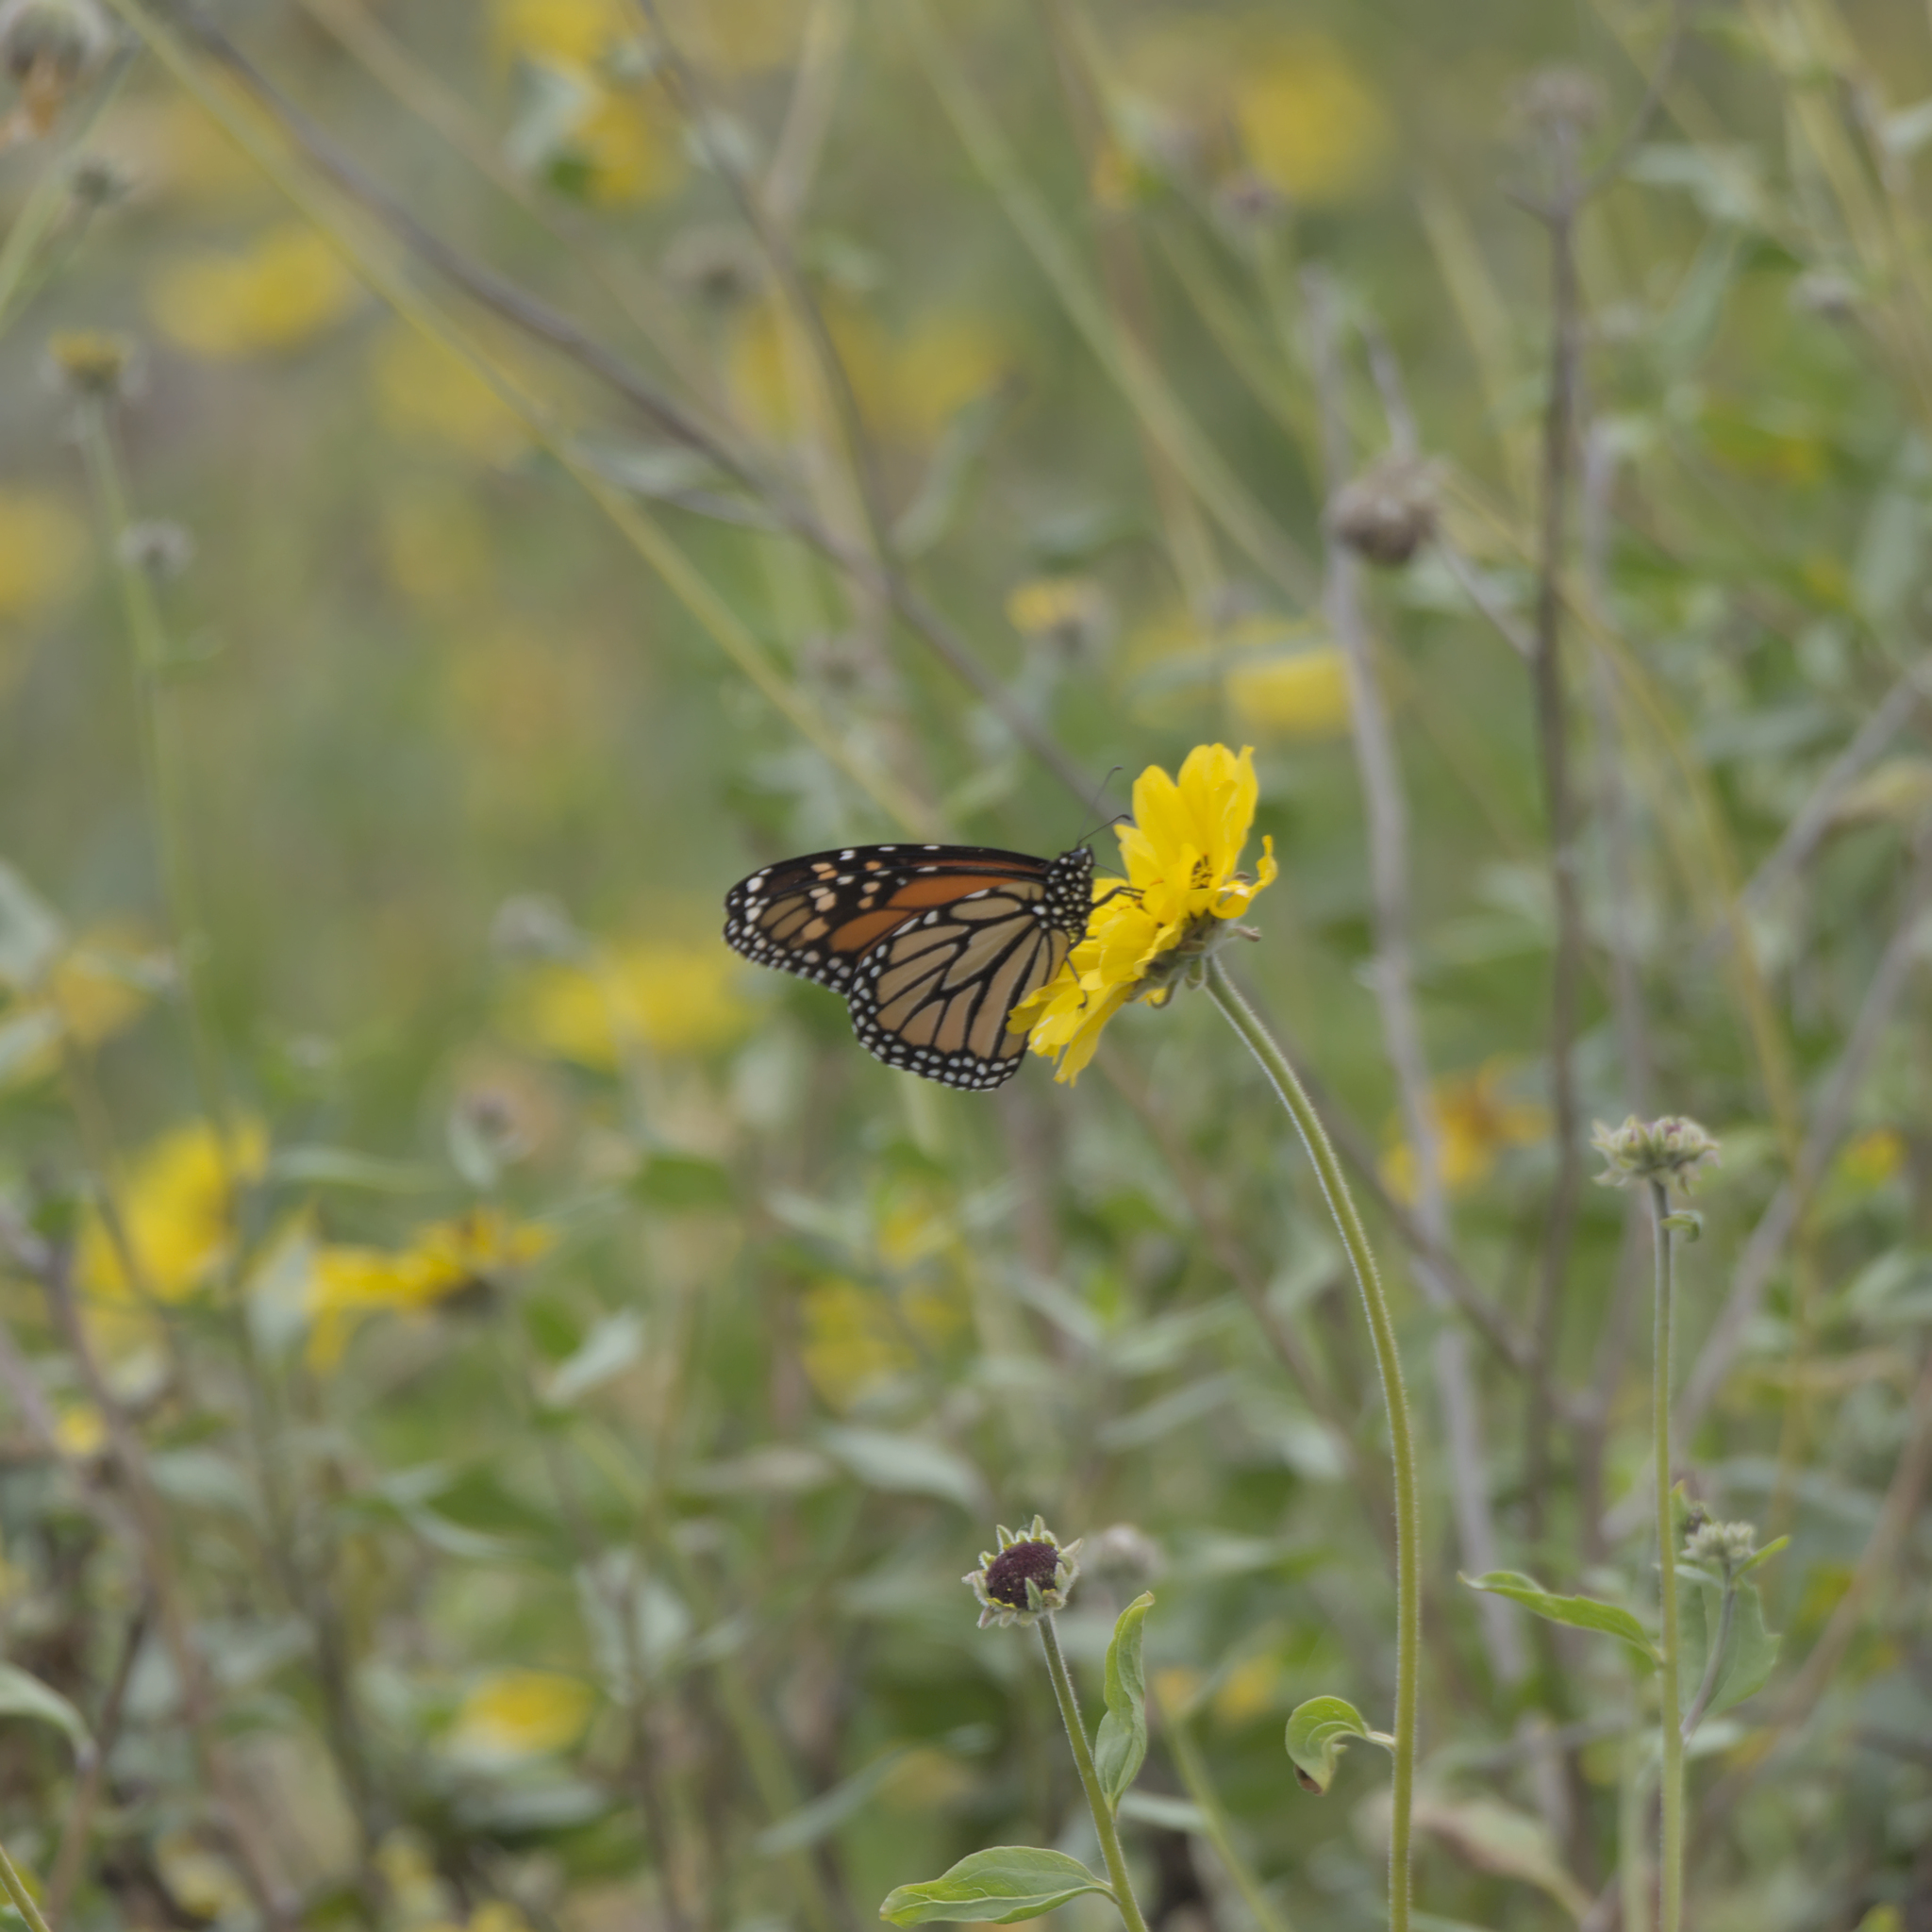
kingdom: Animalia
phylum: Arthropoda
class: Insecta
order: Lepidoptera
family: Nymphalidae
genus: Danaus
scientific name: Danaus plexippus
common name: Monarch
